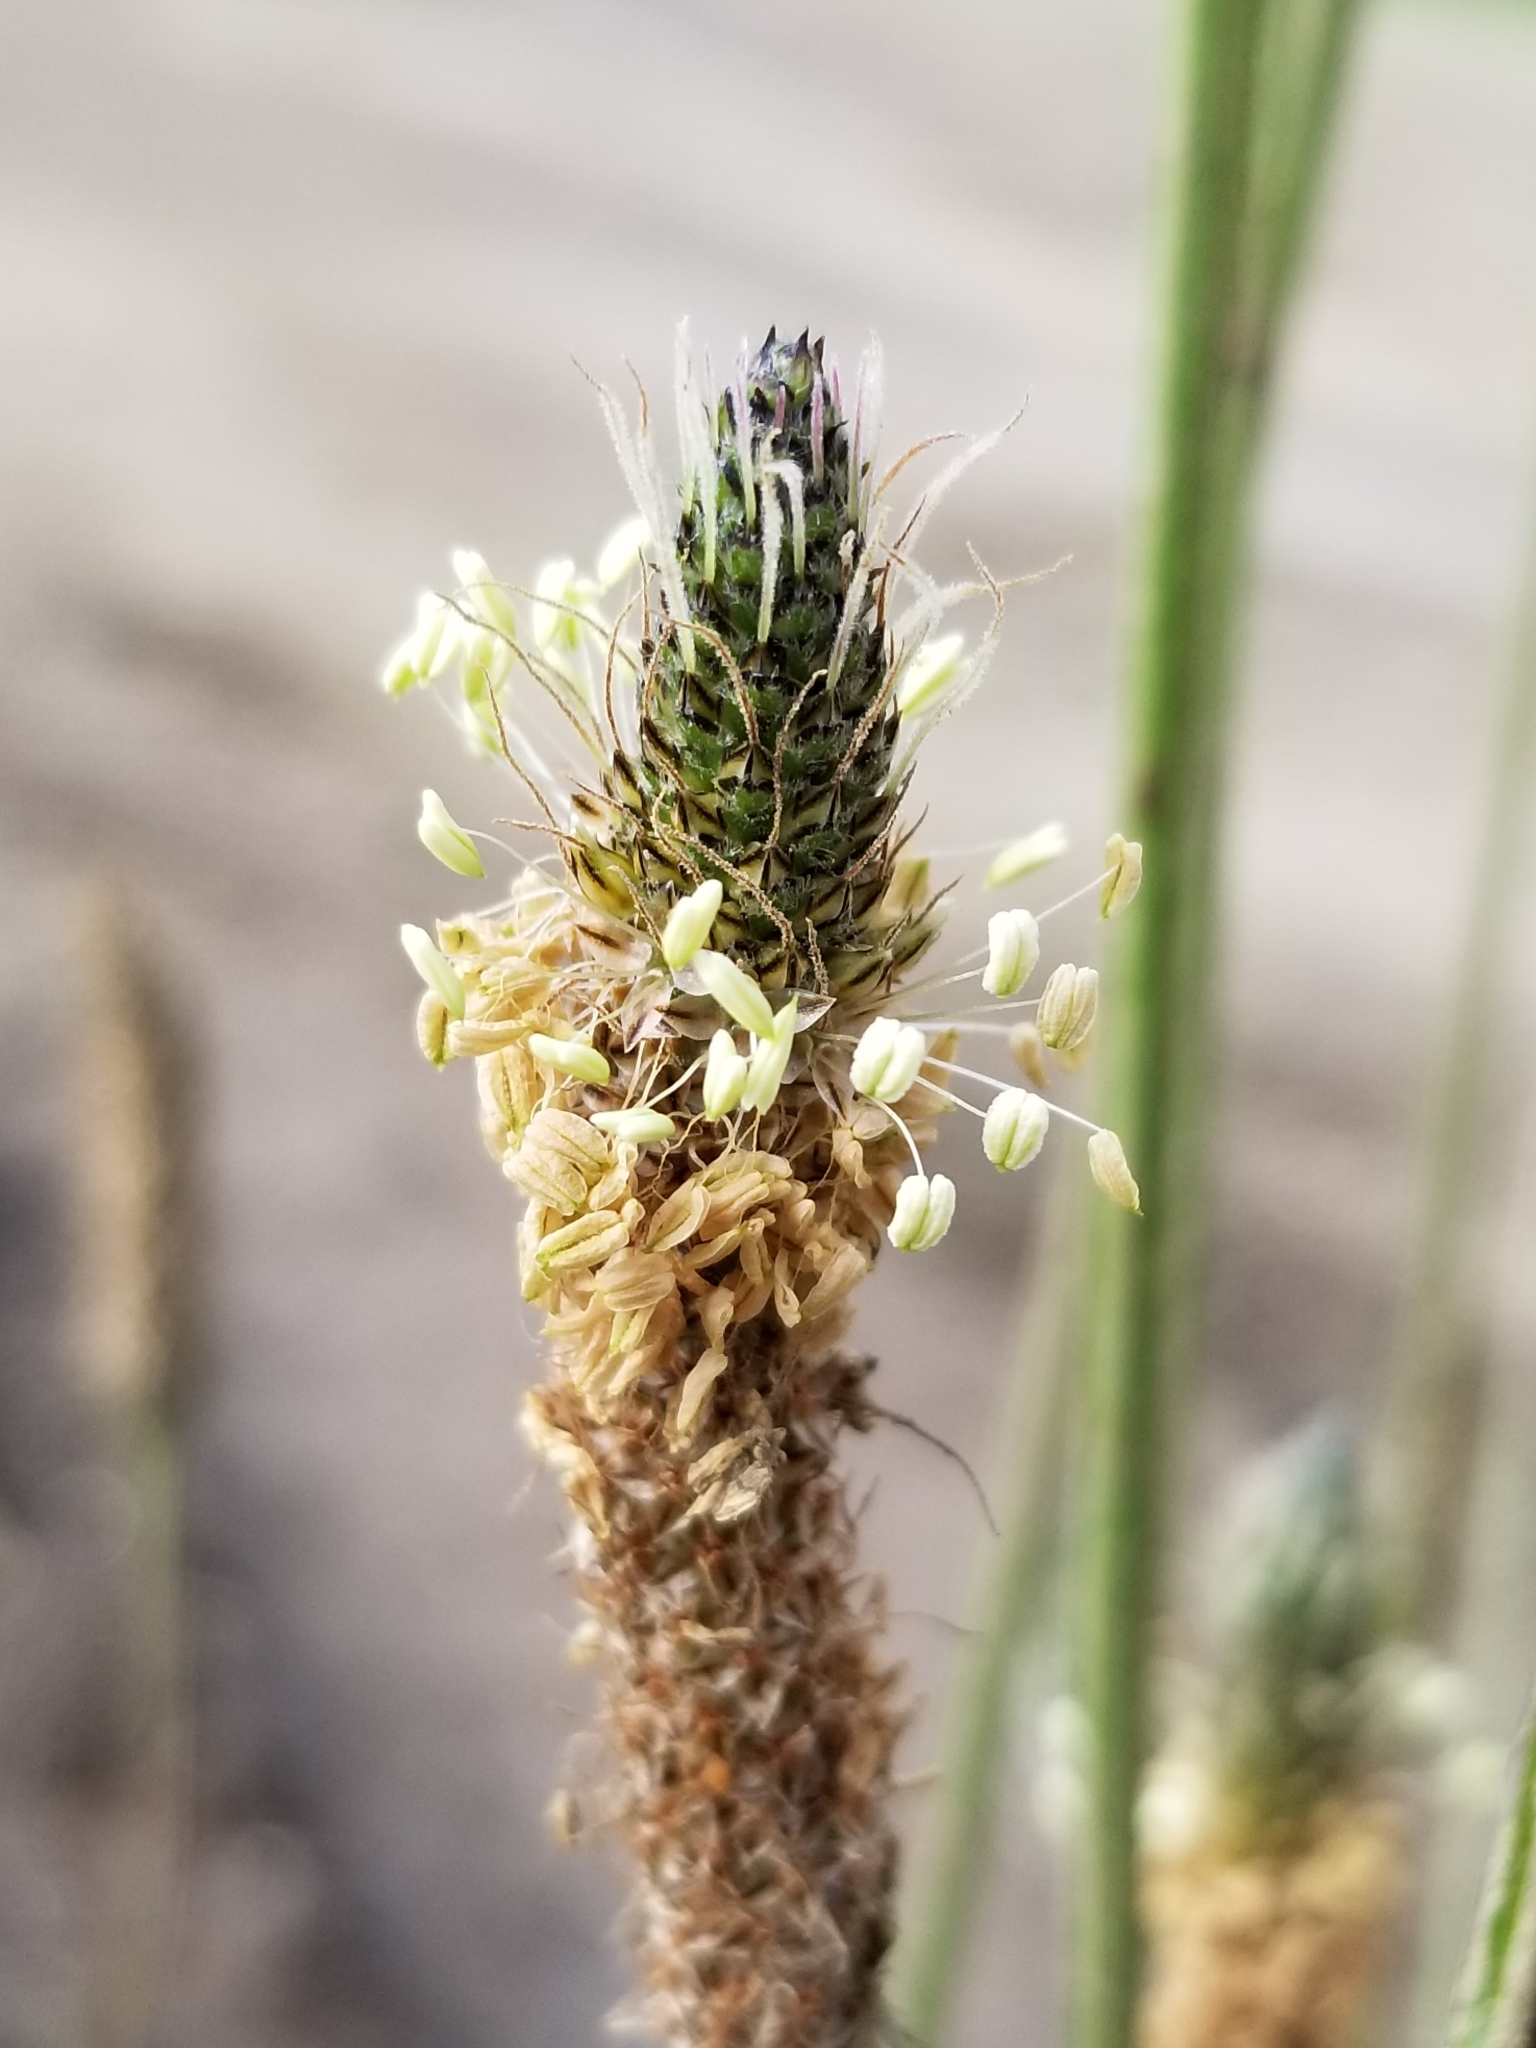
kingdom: Plantae
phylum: Tracheophyta
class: Magnoliopsida
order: Lamiales
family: Plantaginaceae
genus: Plantago
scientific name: Plantago lanceolata
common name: Ribwort plantain
